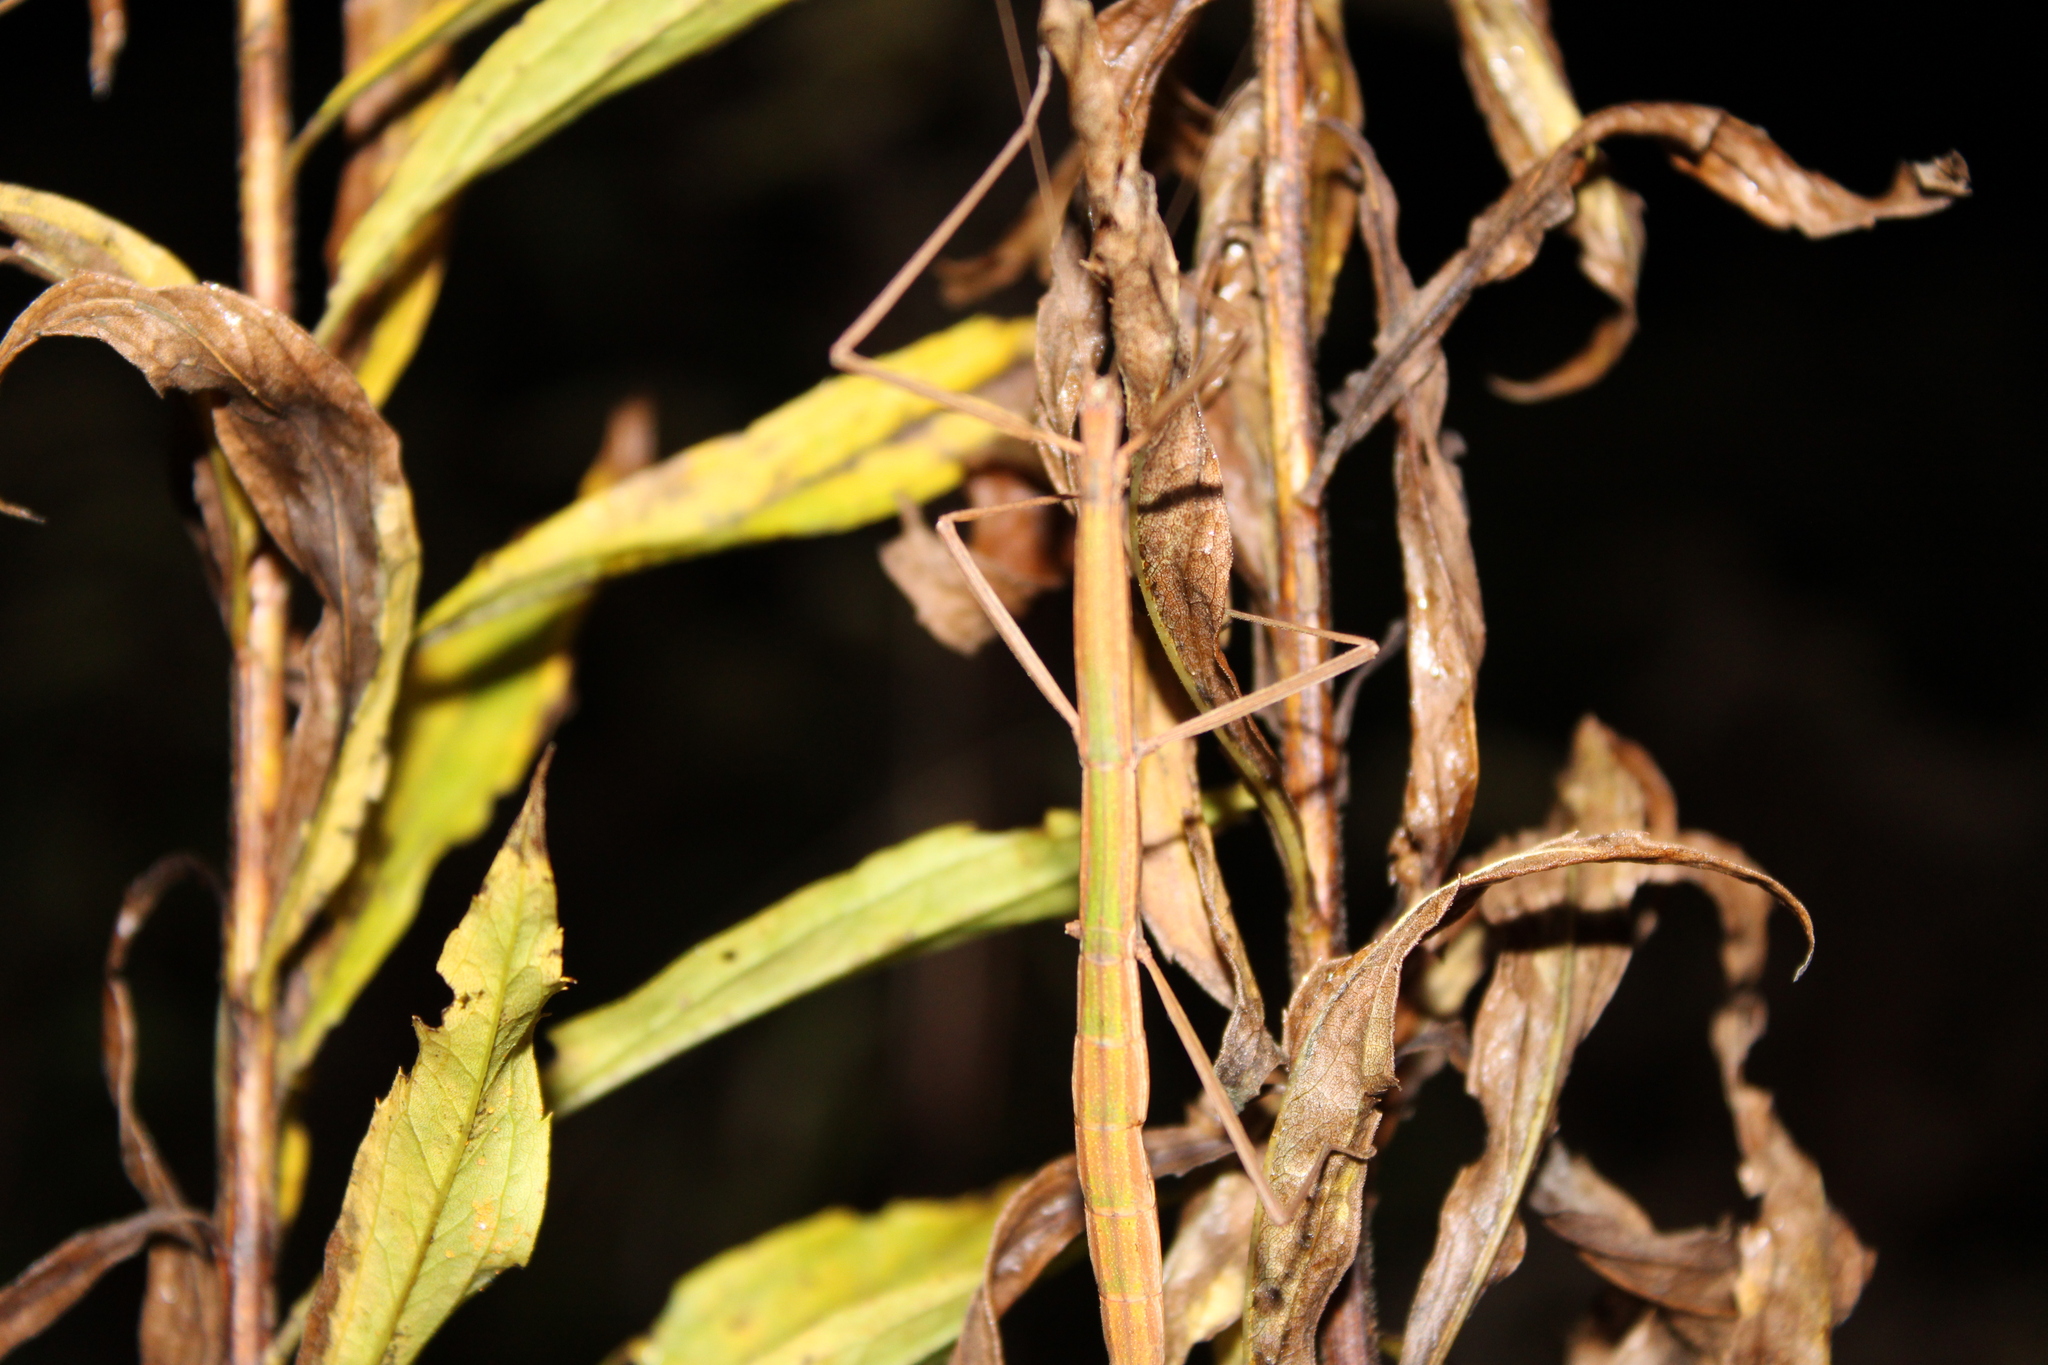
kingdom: Animalia
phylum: Arthropoda
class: Insecta
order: Phasmida
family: Diapheromeridae
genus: Manomera
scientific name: Manomera blatchleyi
